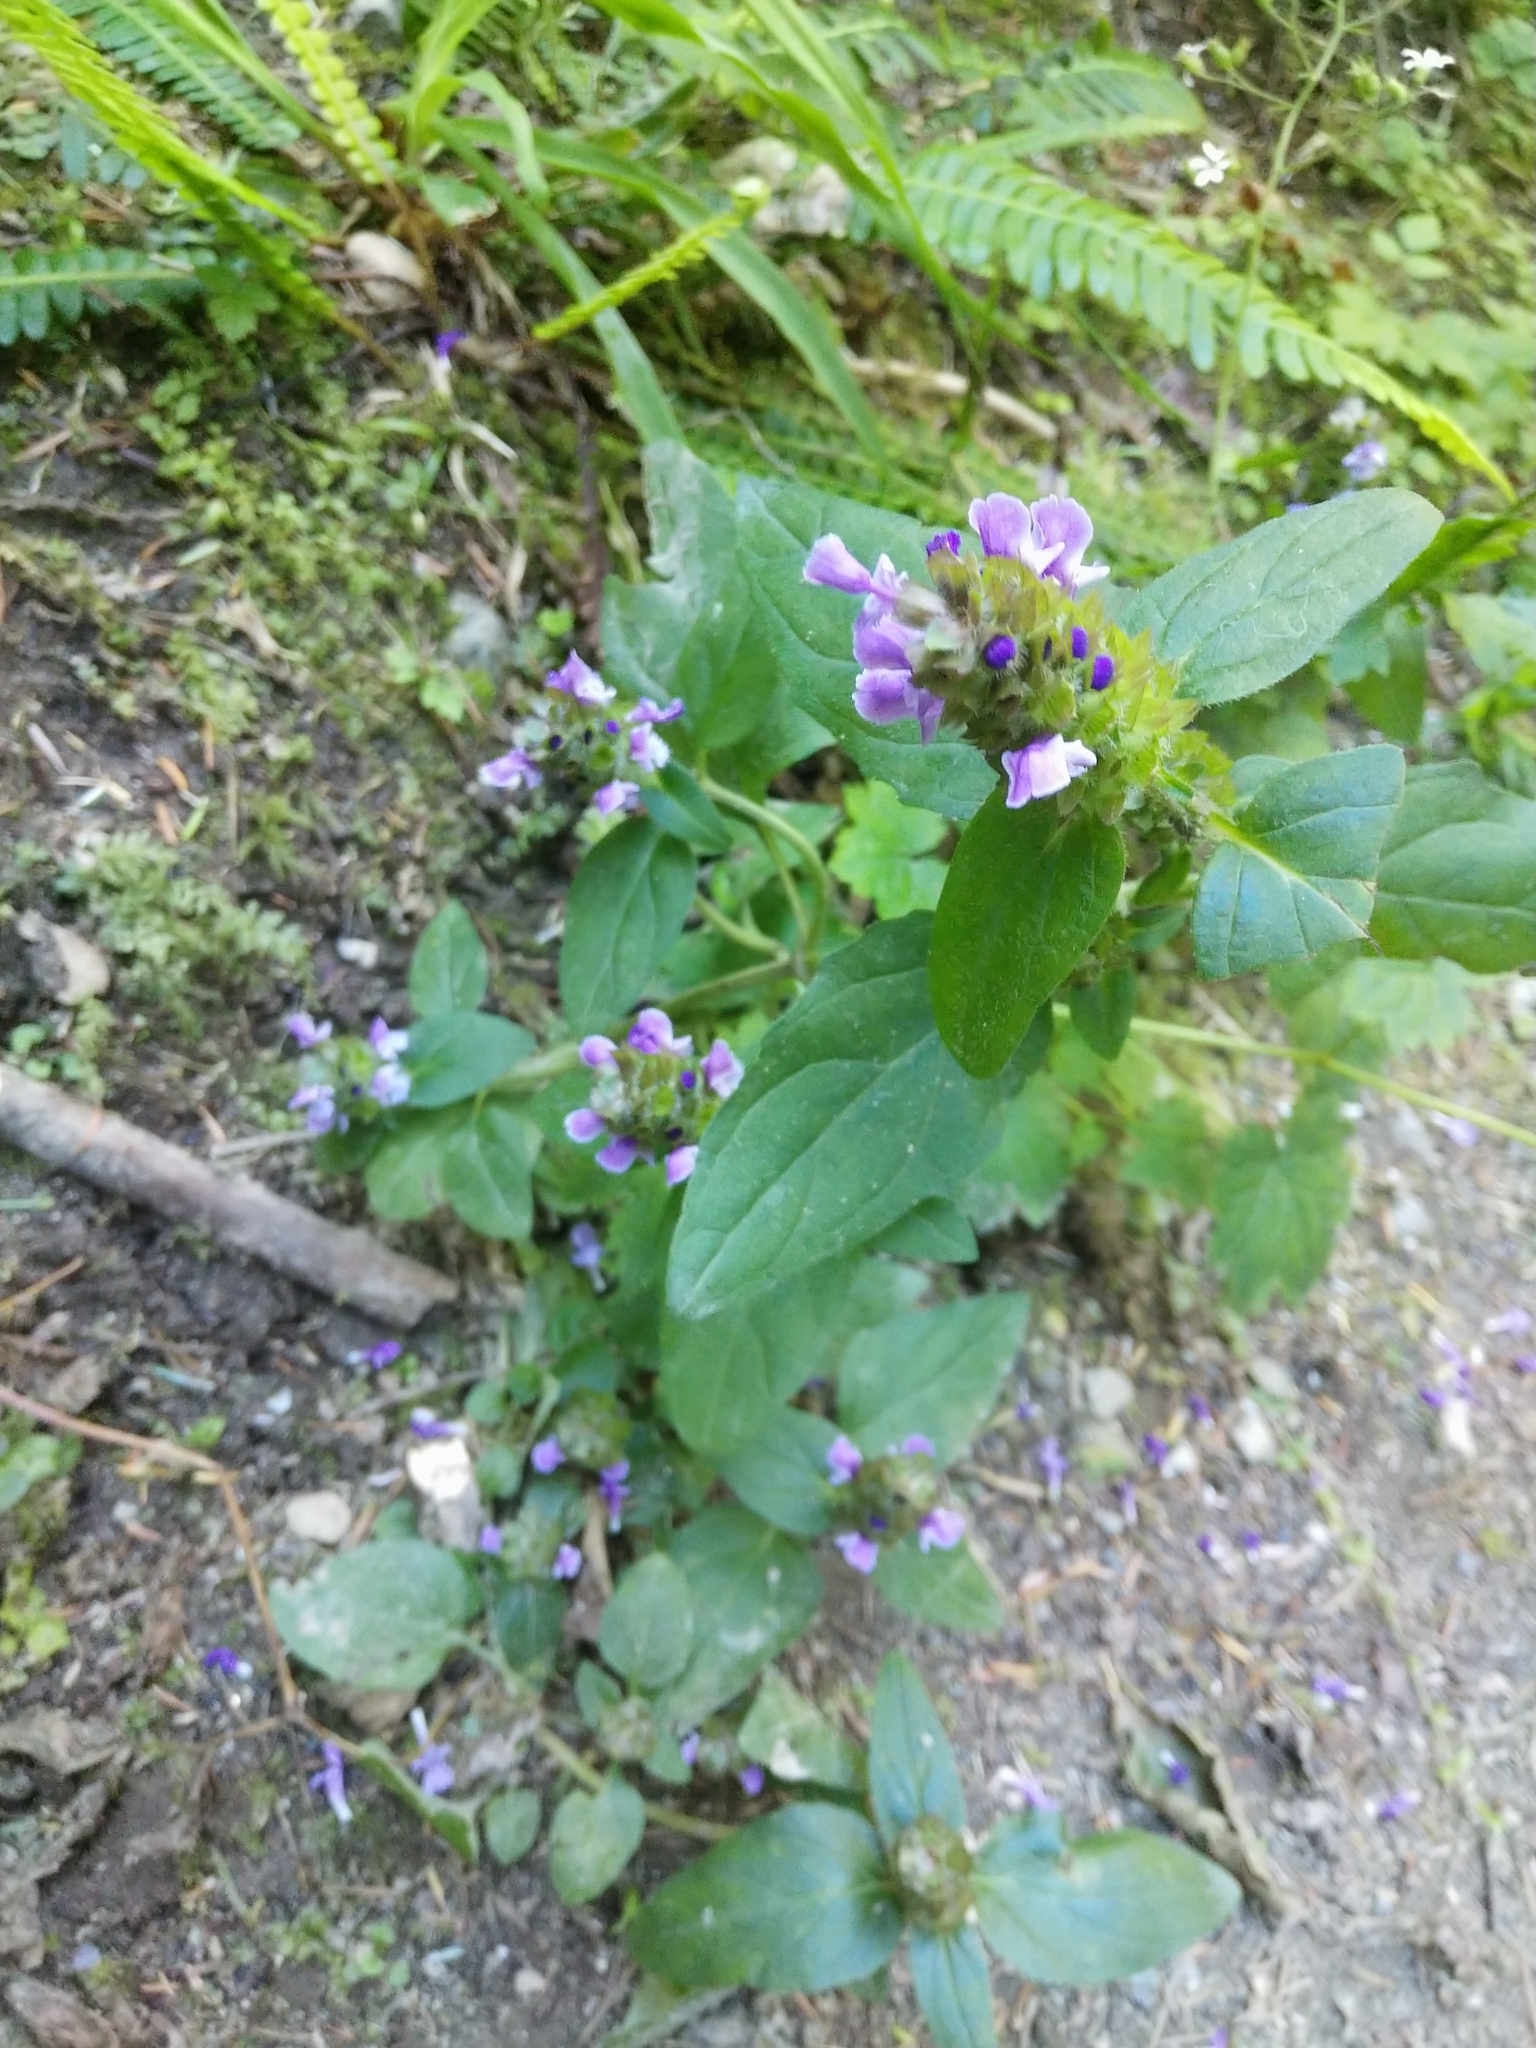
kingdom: Plantae
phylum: Tracheophyta
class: Magnoliopsida
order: Lamiales
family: Lamiaceae
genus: Prunella
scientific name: Prunella vulgaris
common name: Heal-all
